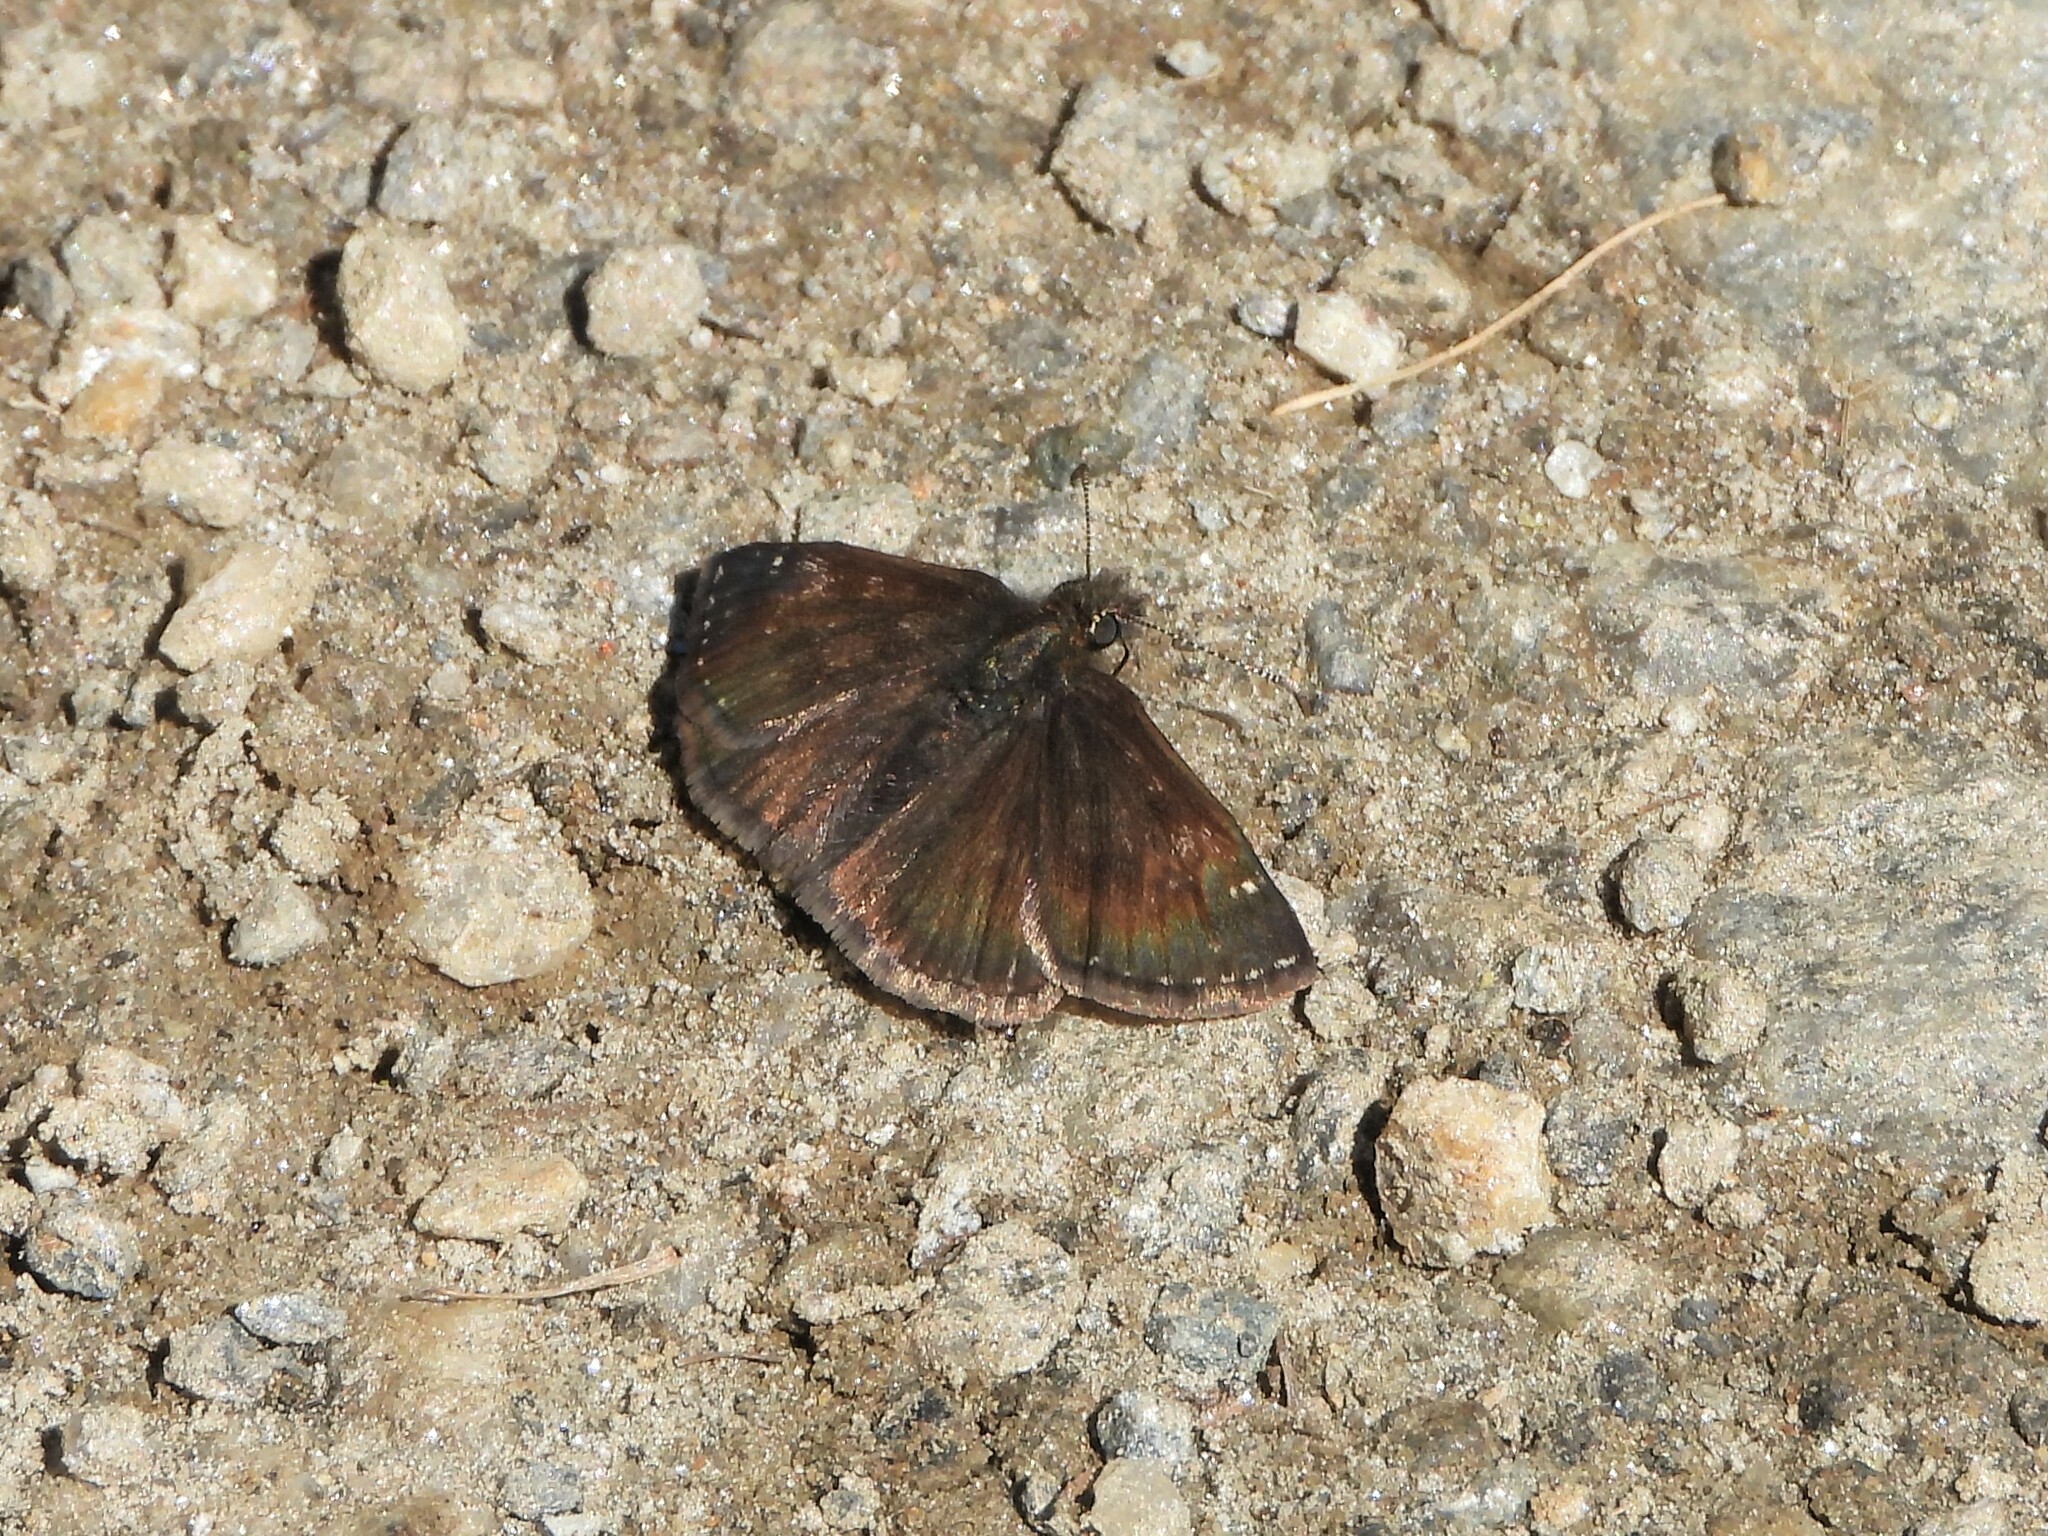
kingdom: Animalia
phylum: Arthropoda
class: Insecta
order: Lepidoptera
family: Hesperiidae
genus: Erynnis
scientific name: Erynnis tages
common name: Dingy skipper
